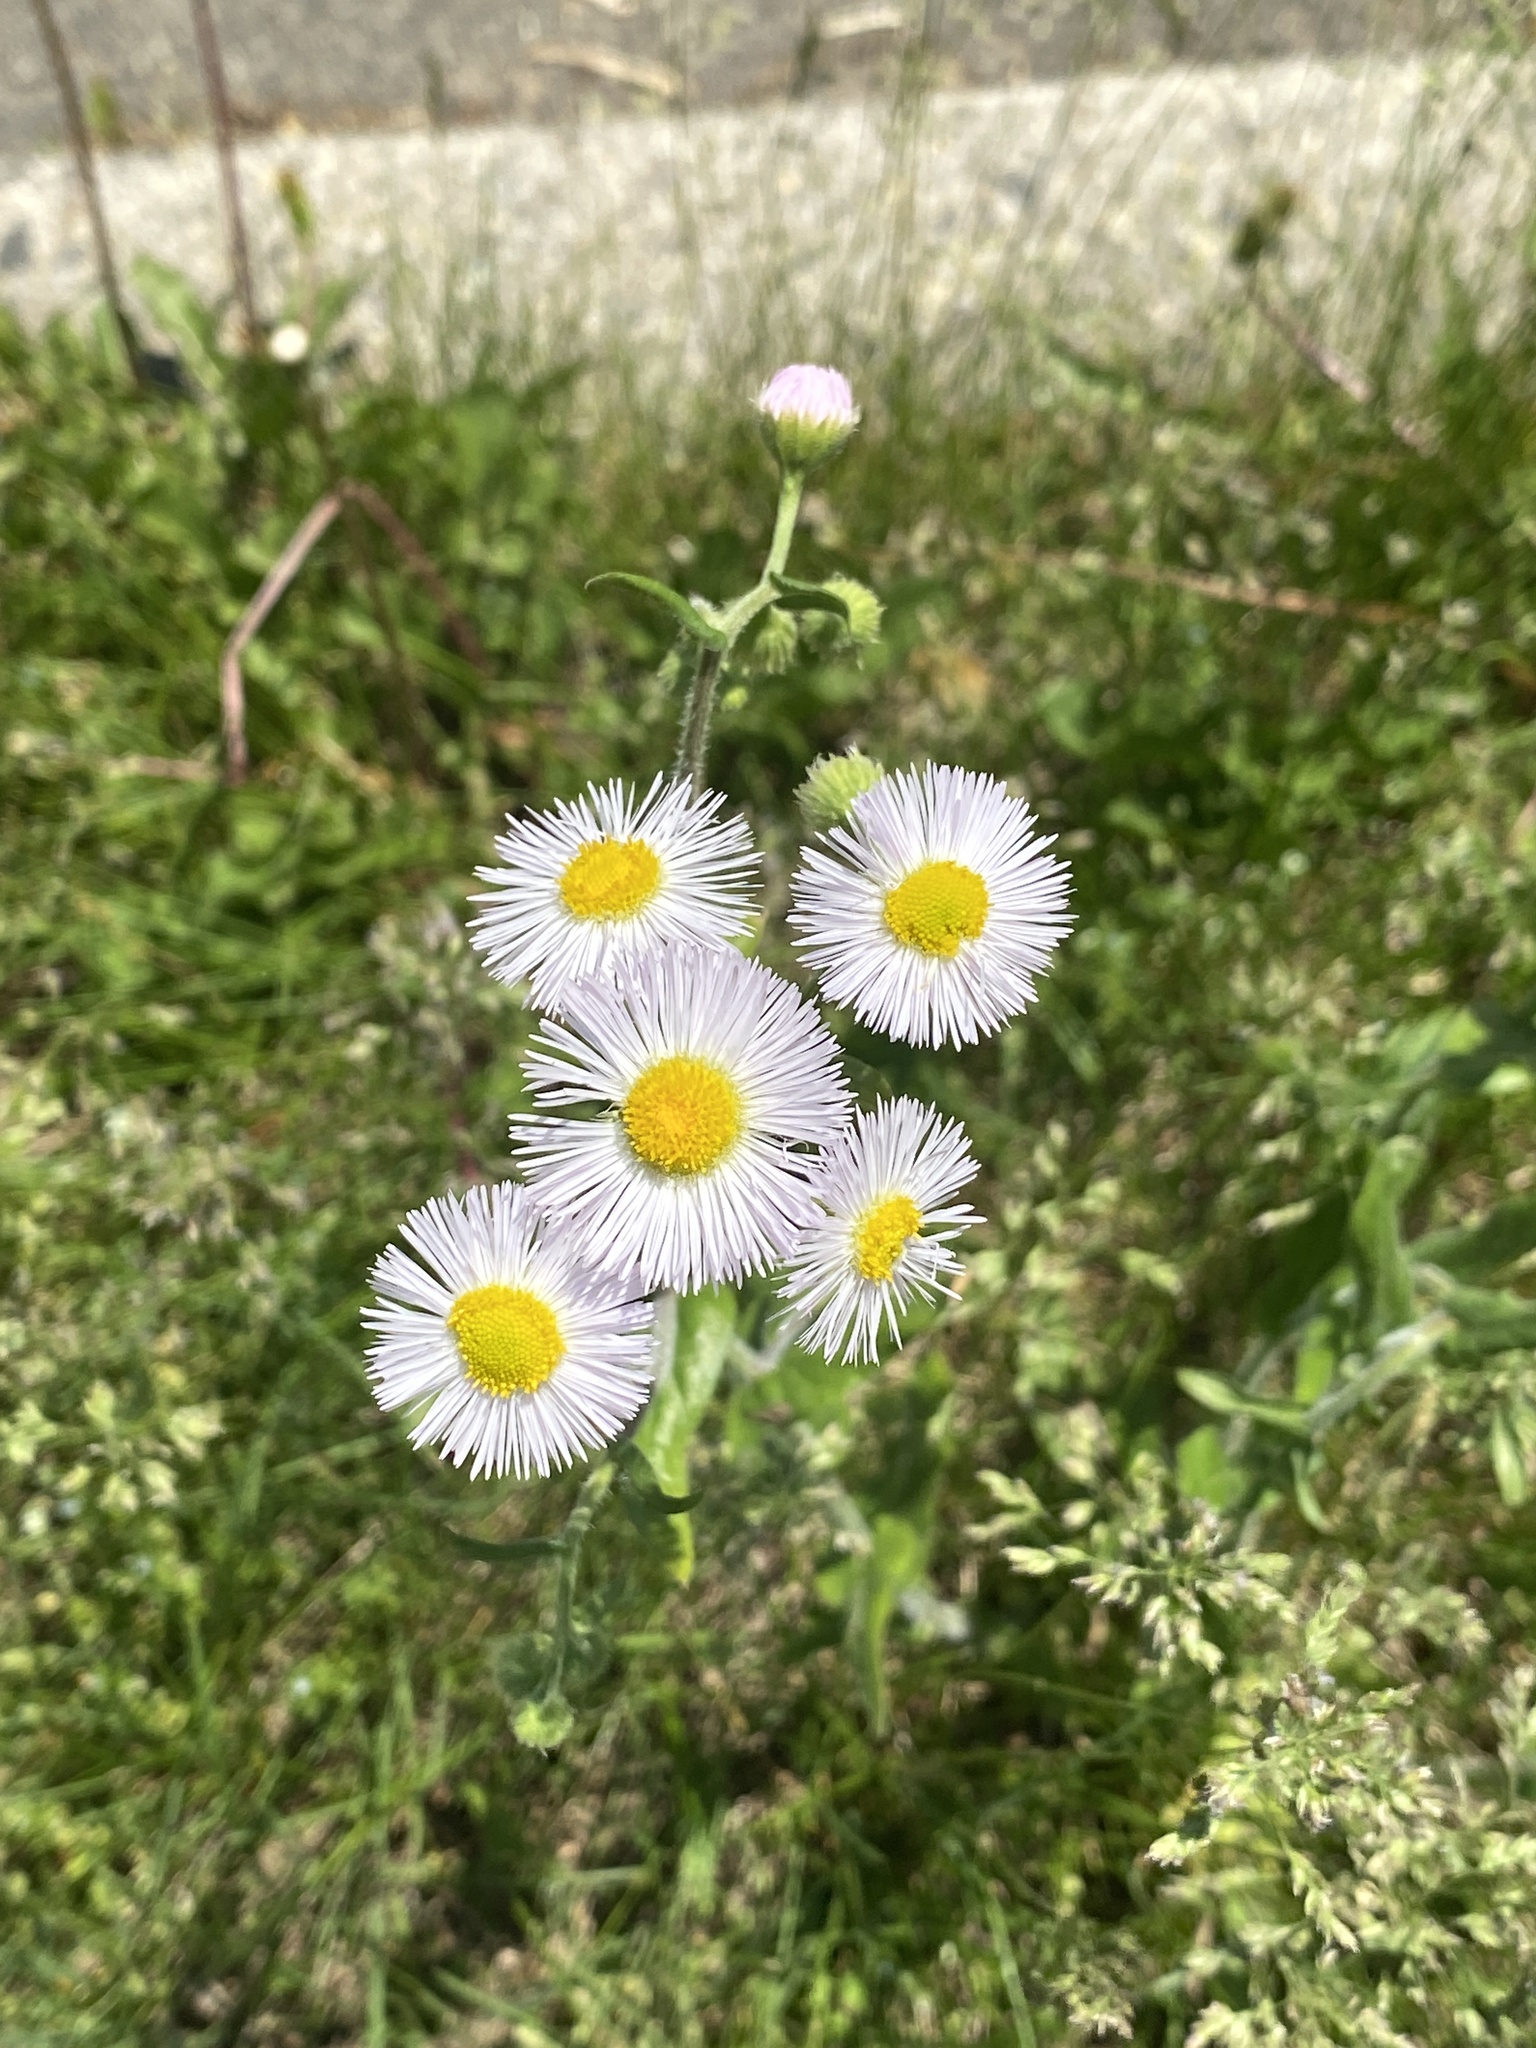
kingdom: Plantae
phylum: Tracheophyta
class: Magnoliopsida
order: Asterales
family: Asteraceae
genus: Erigeron
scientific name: Erigeron philadelphicus
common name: Robin's-plantain
